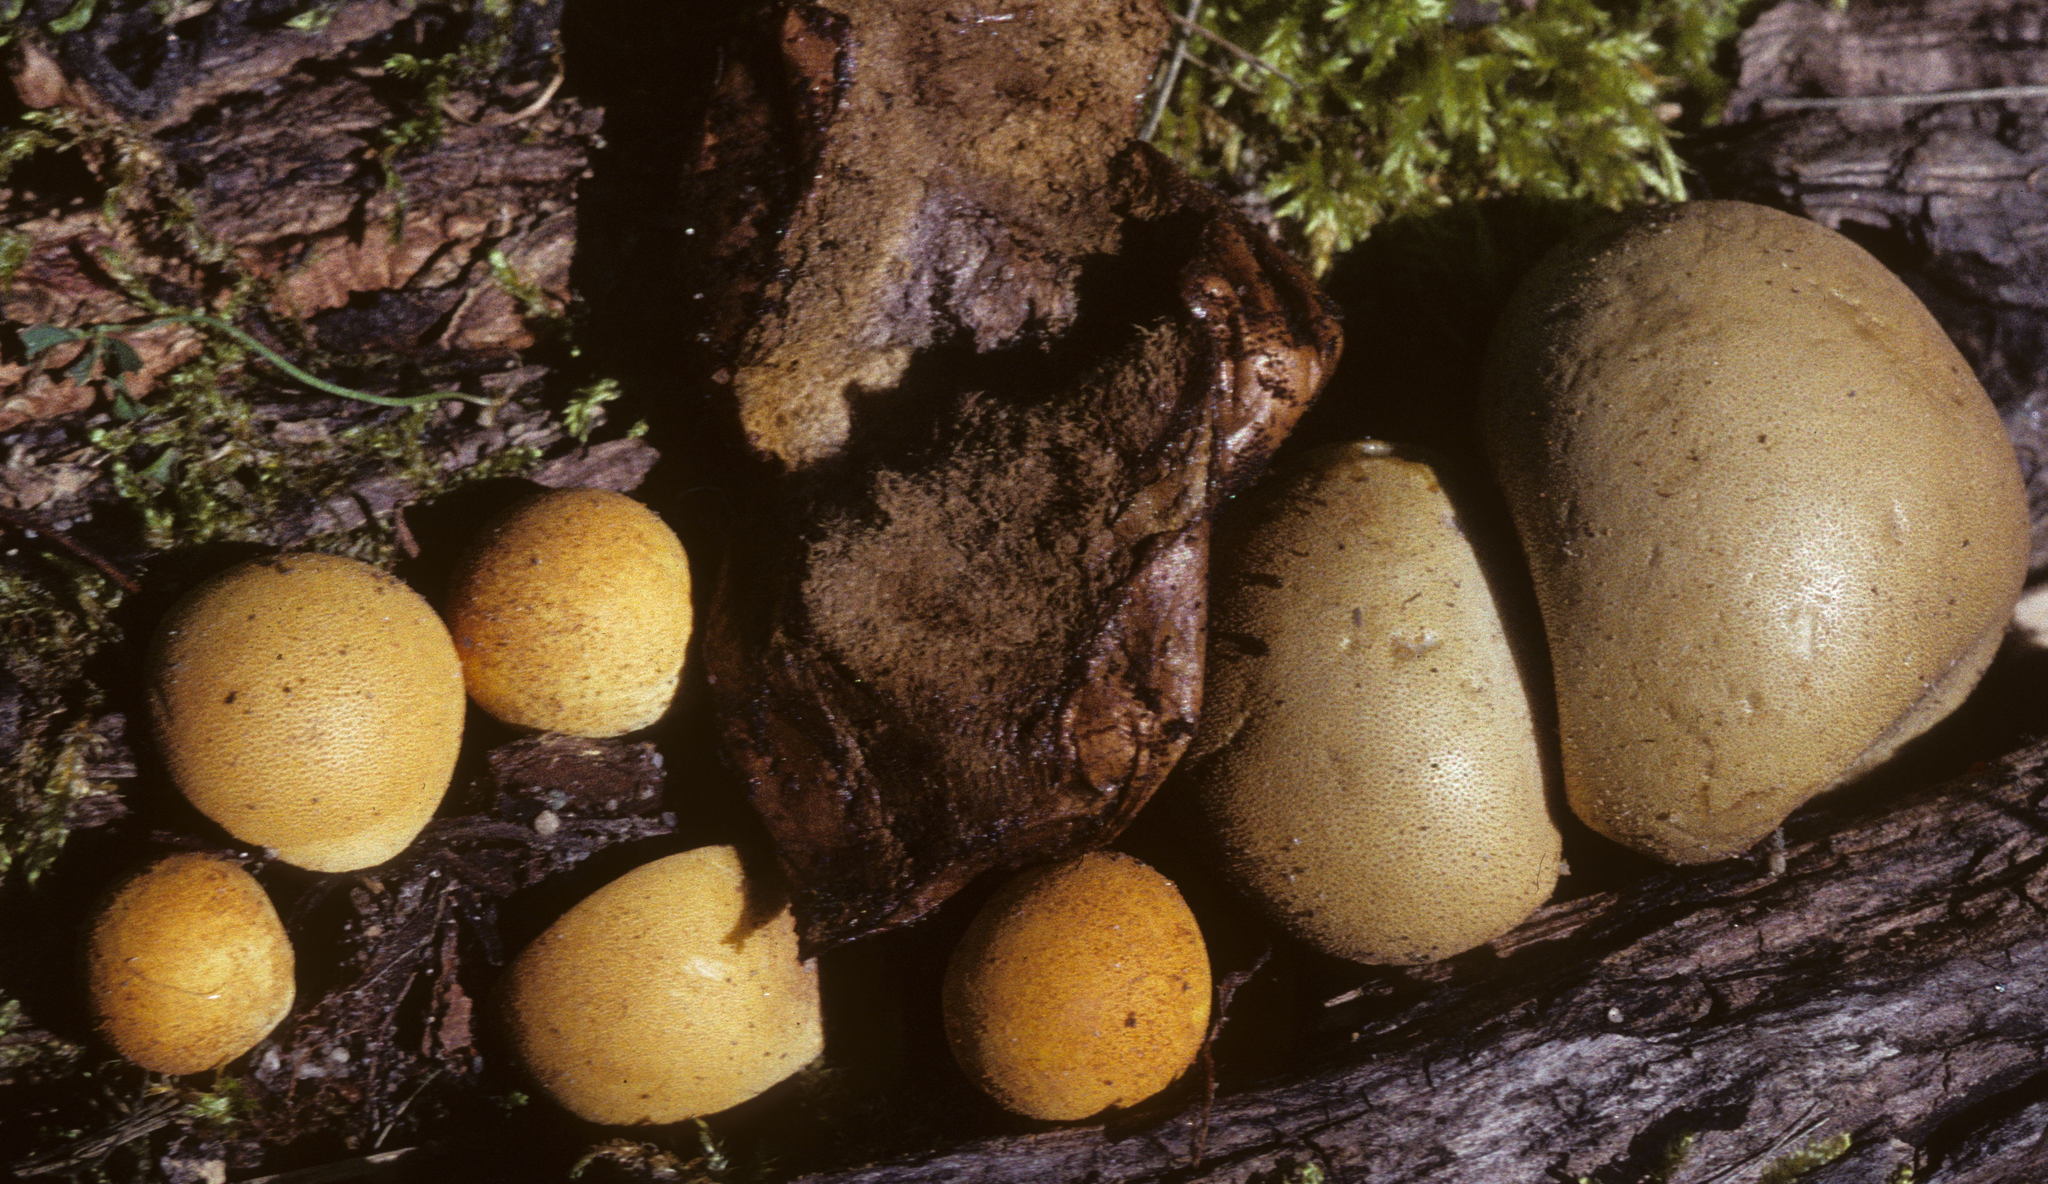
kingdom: Fungi
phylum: Basidiomycota
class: Agaricomycetes
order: Agaricales
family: Lycoperdaceae
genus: Bovista
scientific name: Bovista colorata
